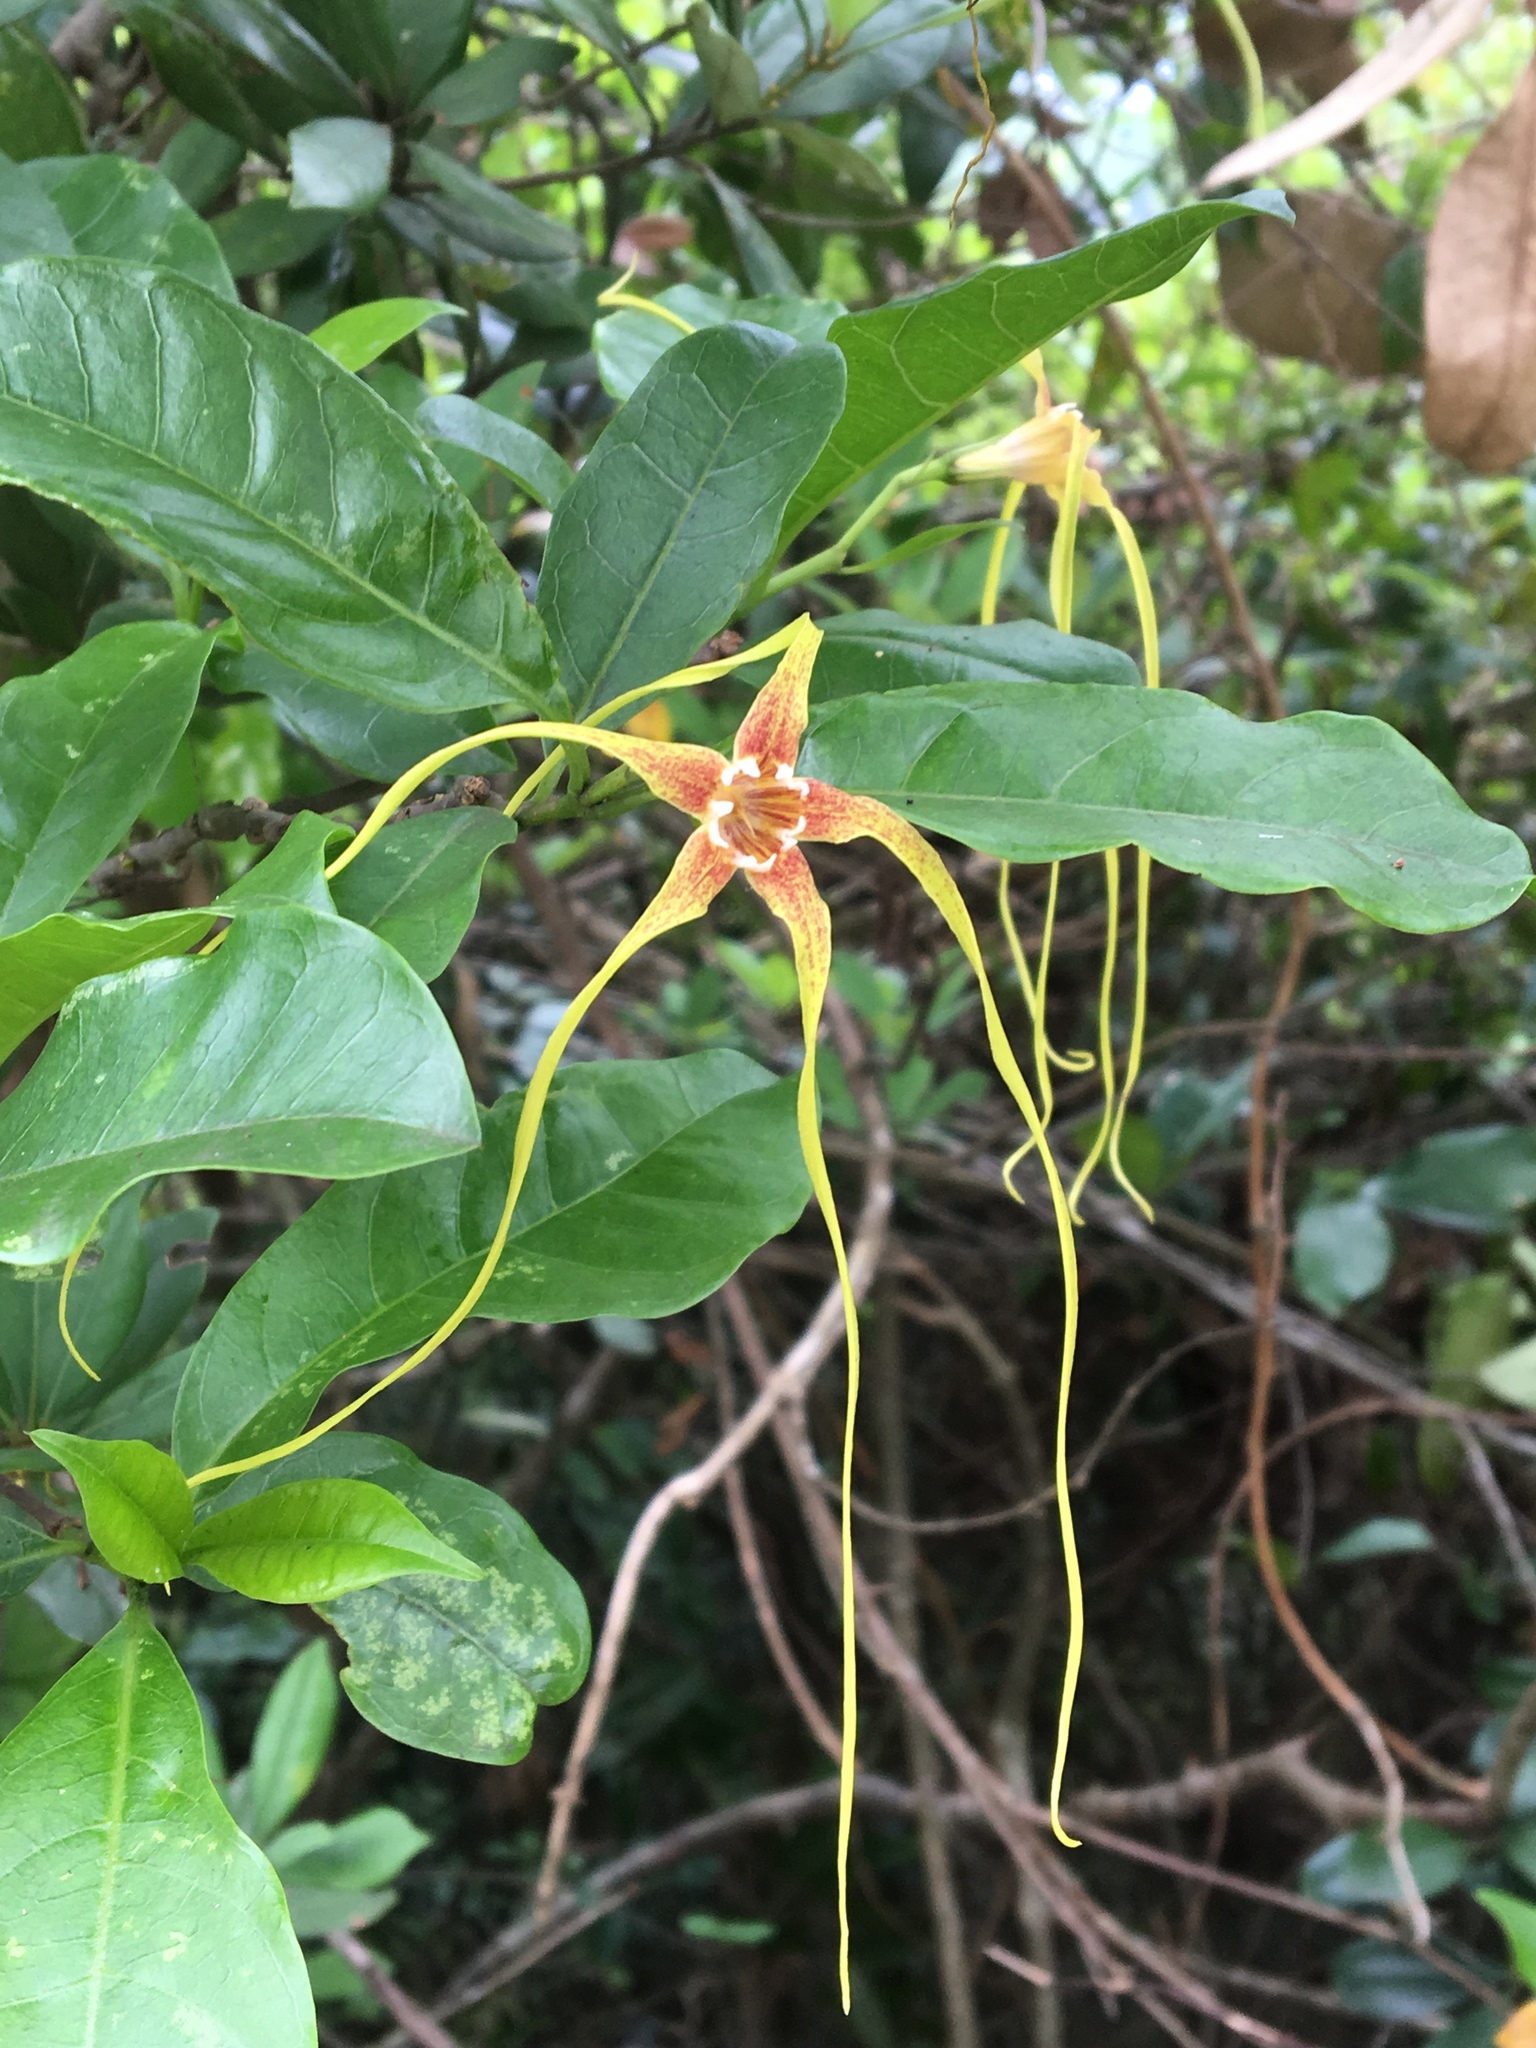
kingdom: Plantae
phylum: Tracheophyta
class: Magnoliopsida
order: Gentianales
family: Apocynaceae
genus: Strophanthus
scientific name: Strophanthus divaricatus
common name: Goat-horns
